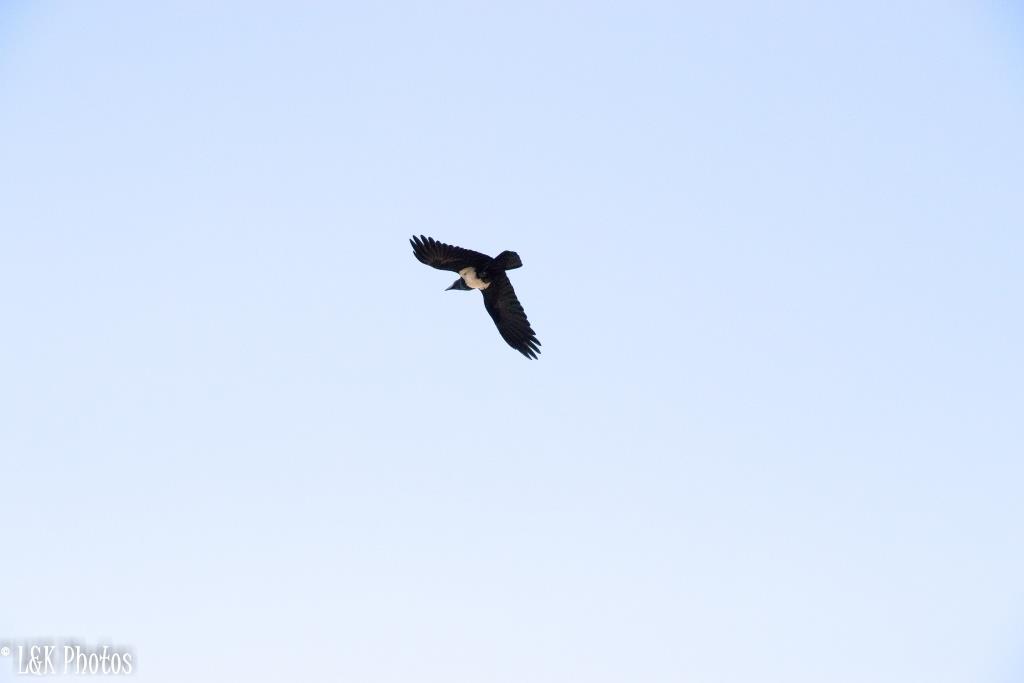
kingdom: Animalia
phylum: Chordata
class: Aves
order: Passeriformes
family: Corvidae
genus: Corvus
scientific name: Corvus albus
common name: Pied crow
